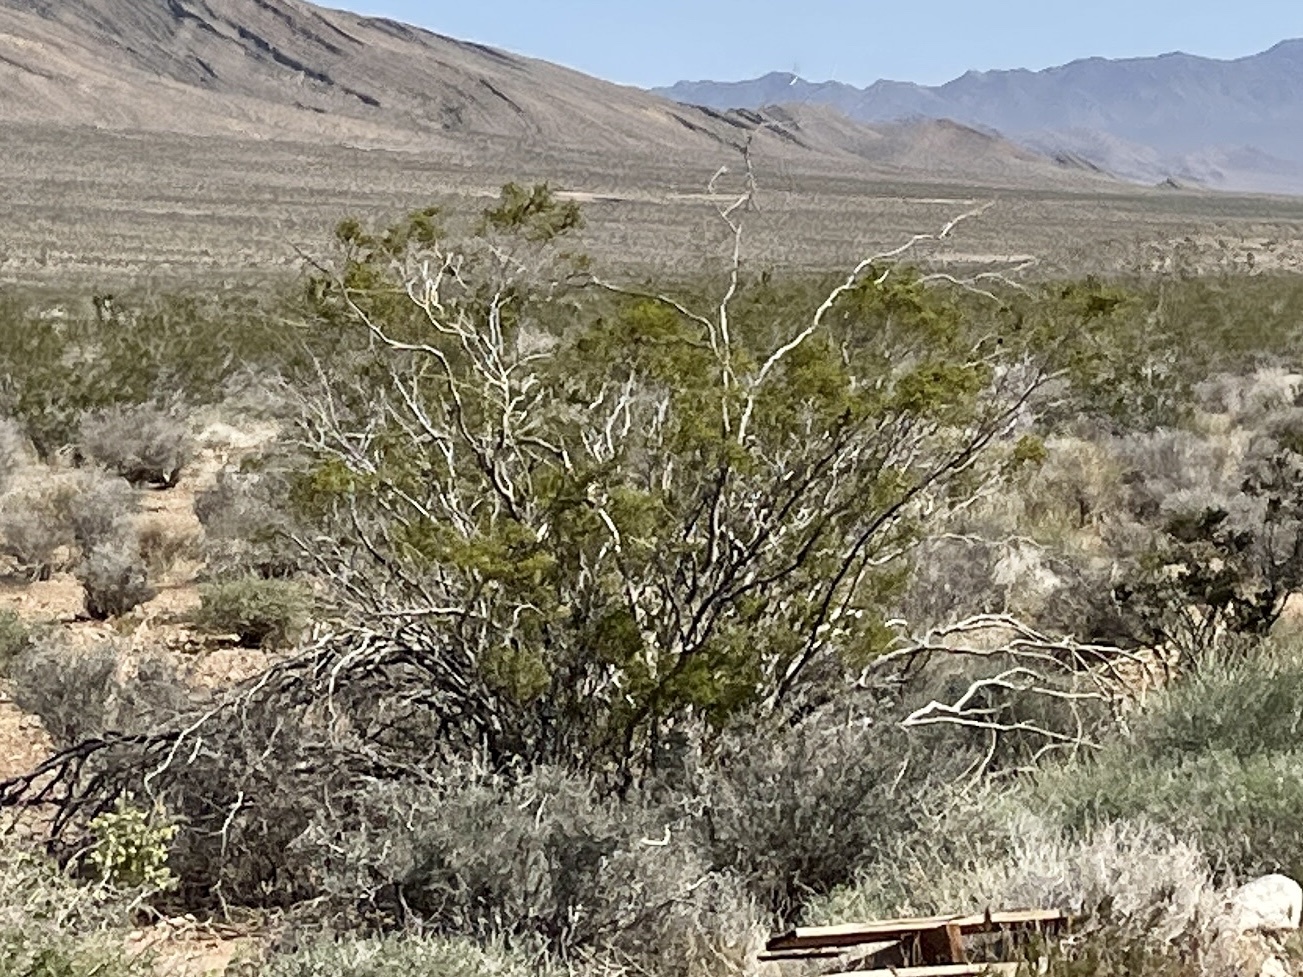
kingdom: Plantae
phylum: Tracheophyta
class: Magnoliopsida
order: Zygophyllales
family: Zygophyllaceae
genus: Larrea
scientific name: Larrea tridentata
